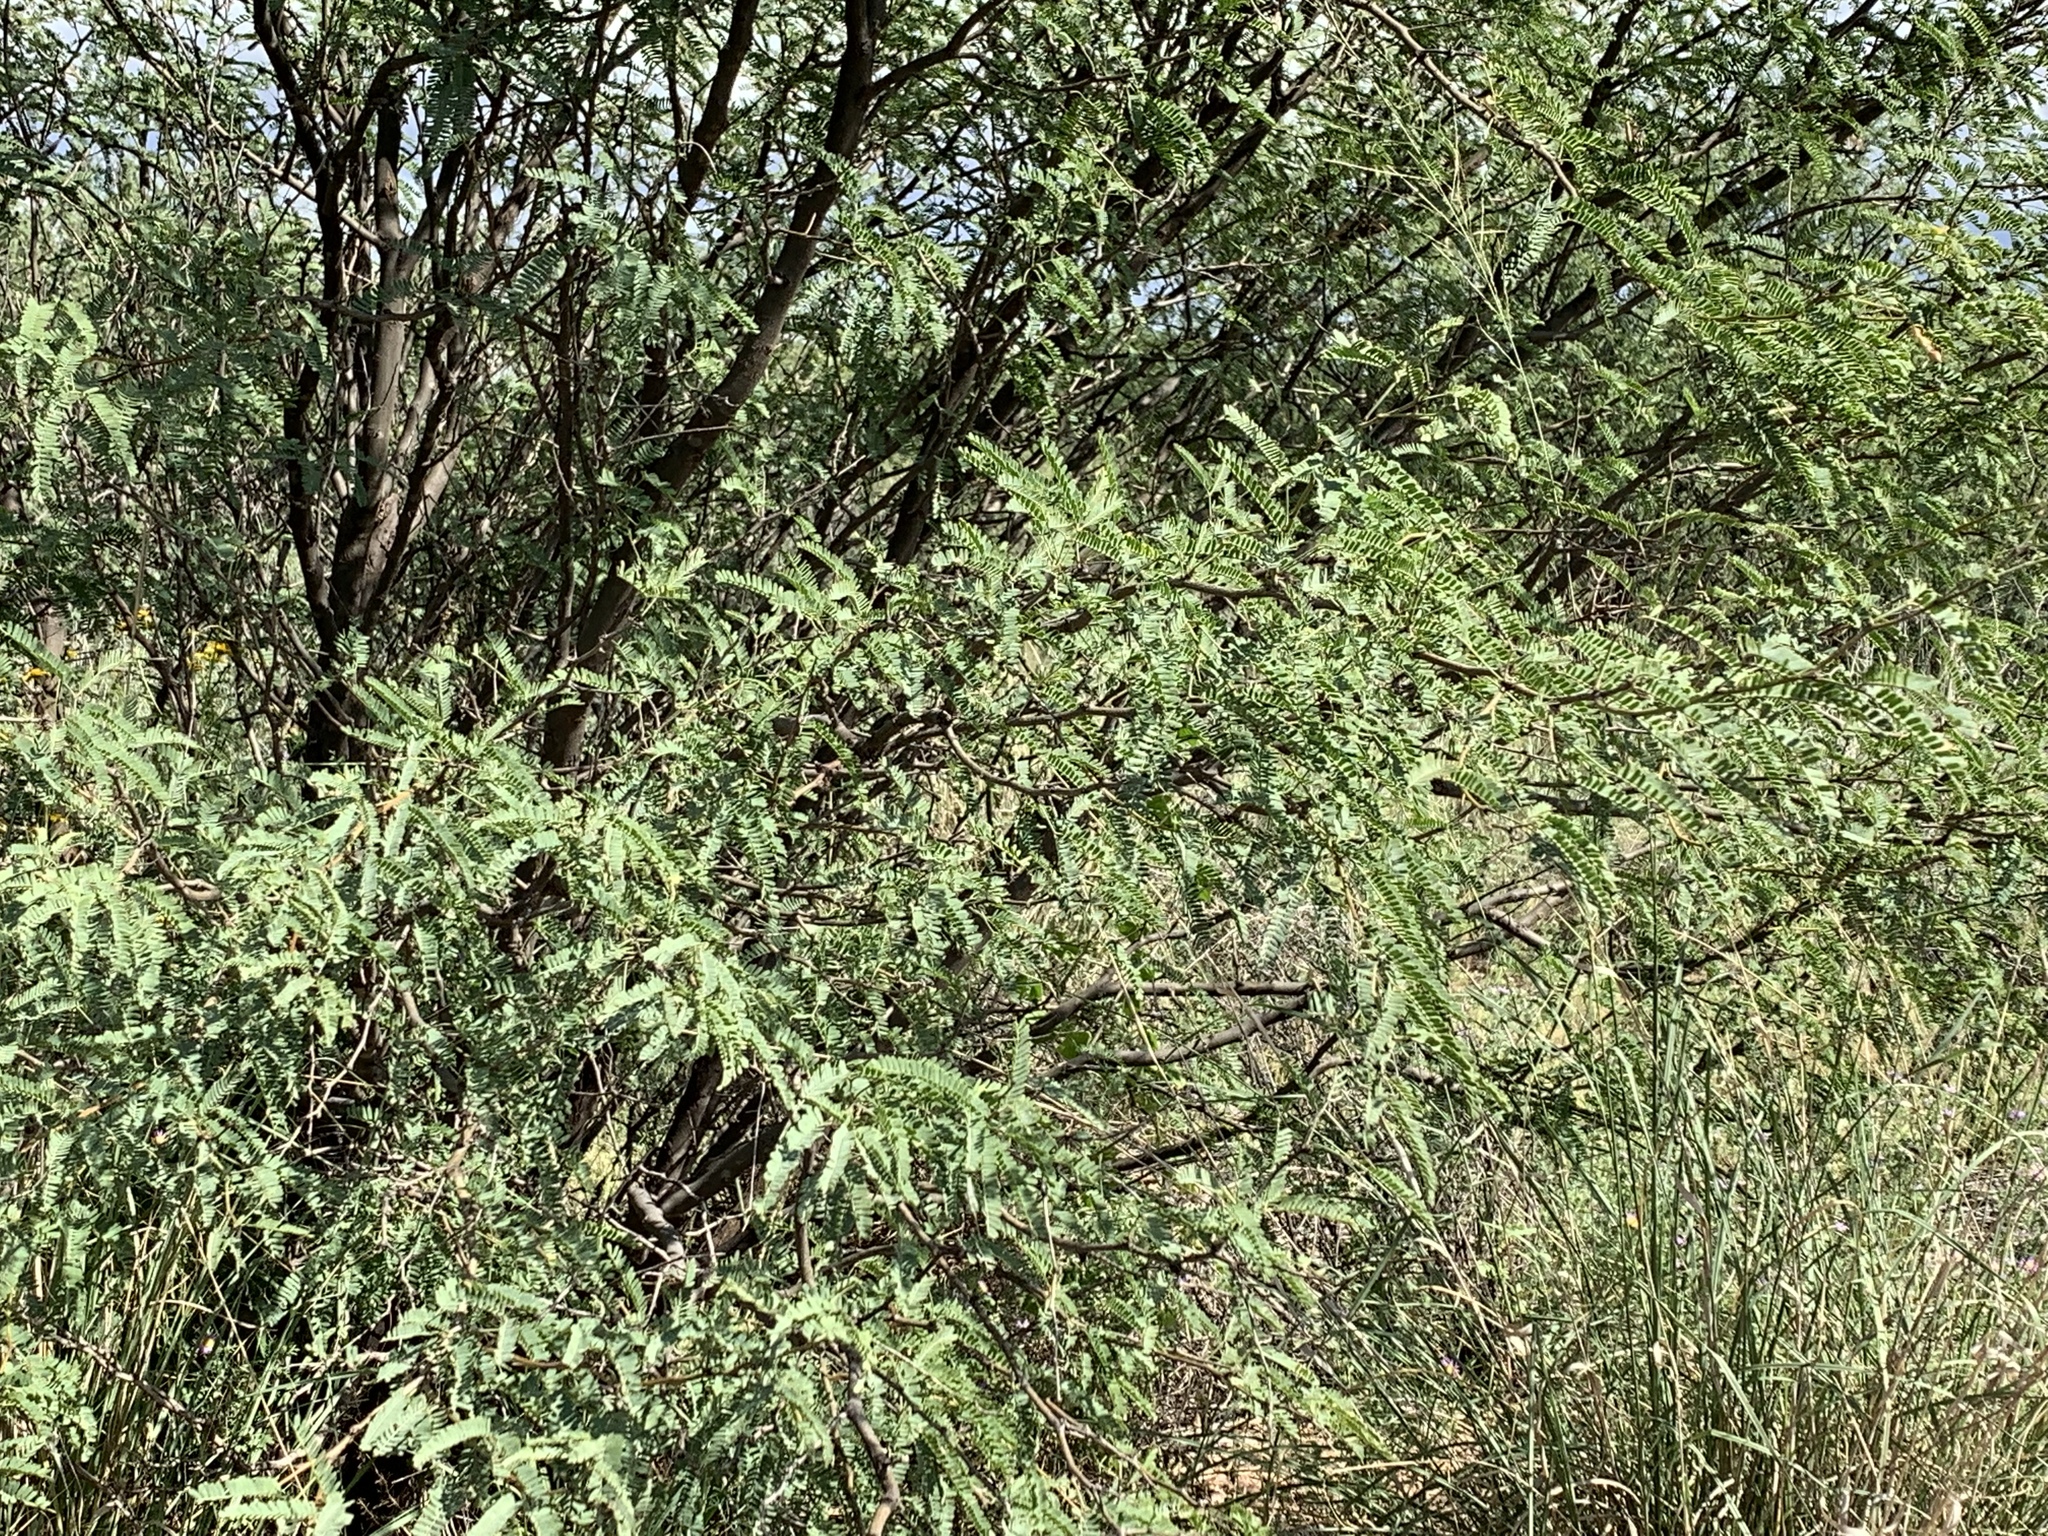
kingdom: Plantae
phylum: Tracheophyta
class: Magnoliopsida
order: Fabales
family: Fabaceae
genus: Prosopis
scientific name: Prosopis velutina
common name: Velvet mesquite
